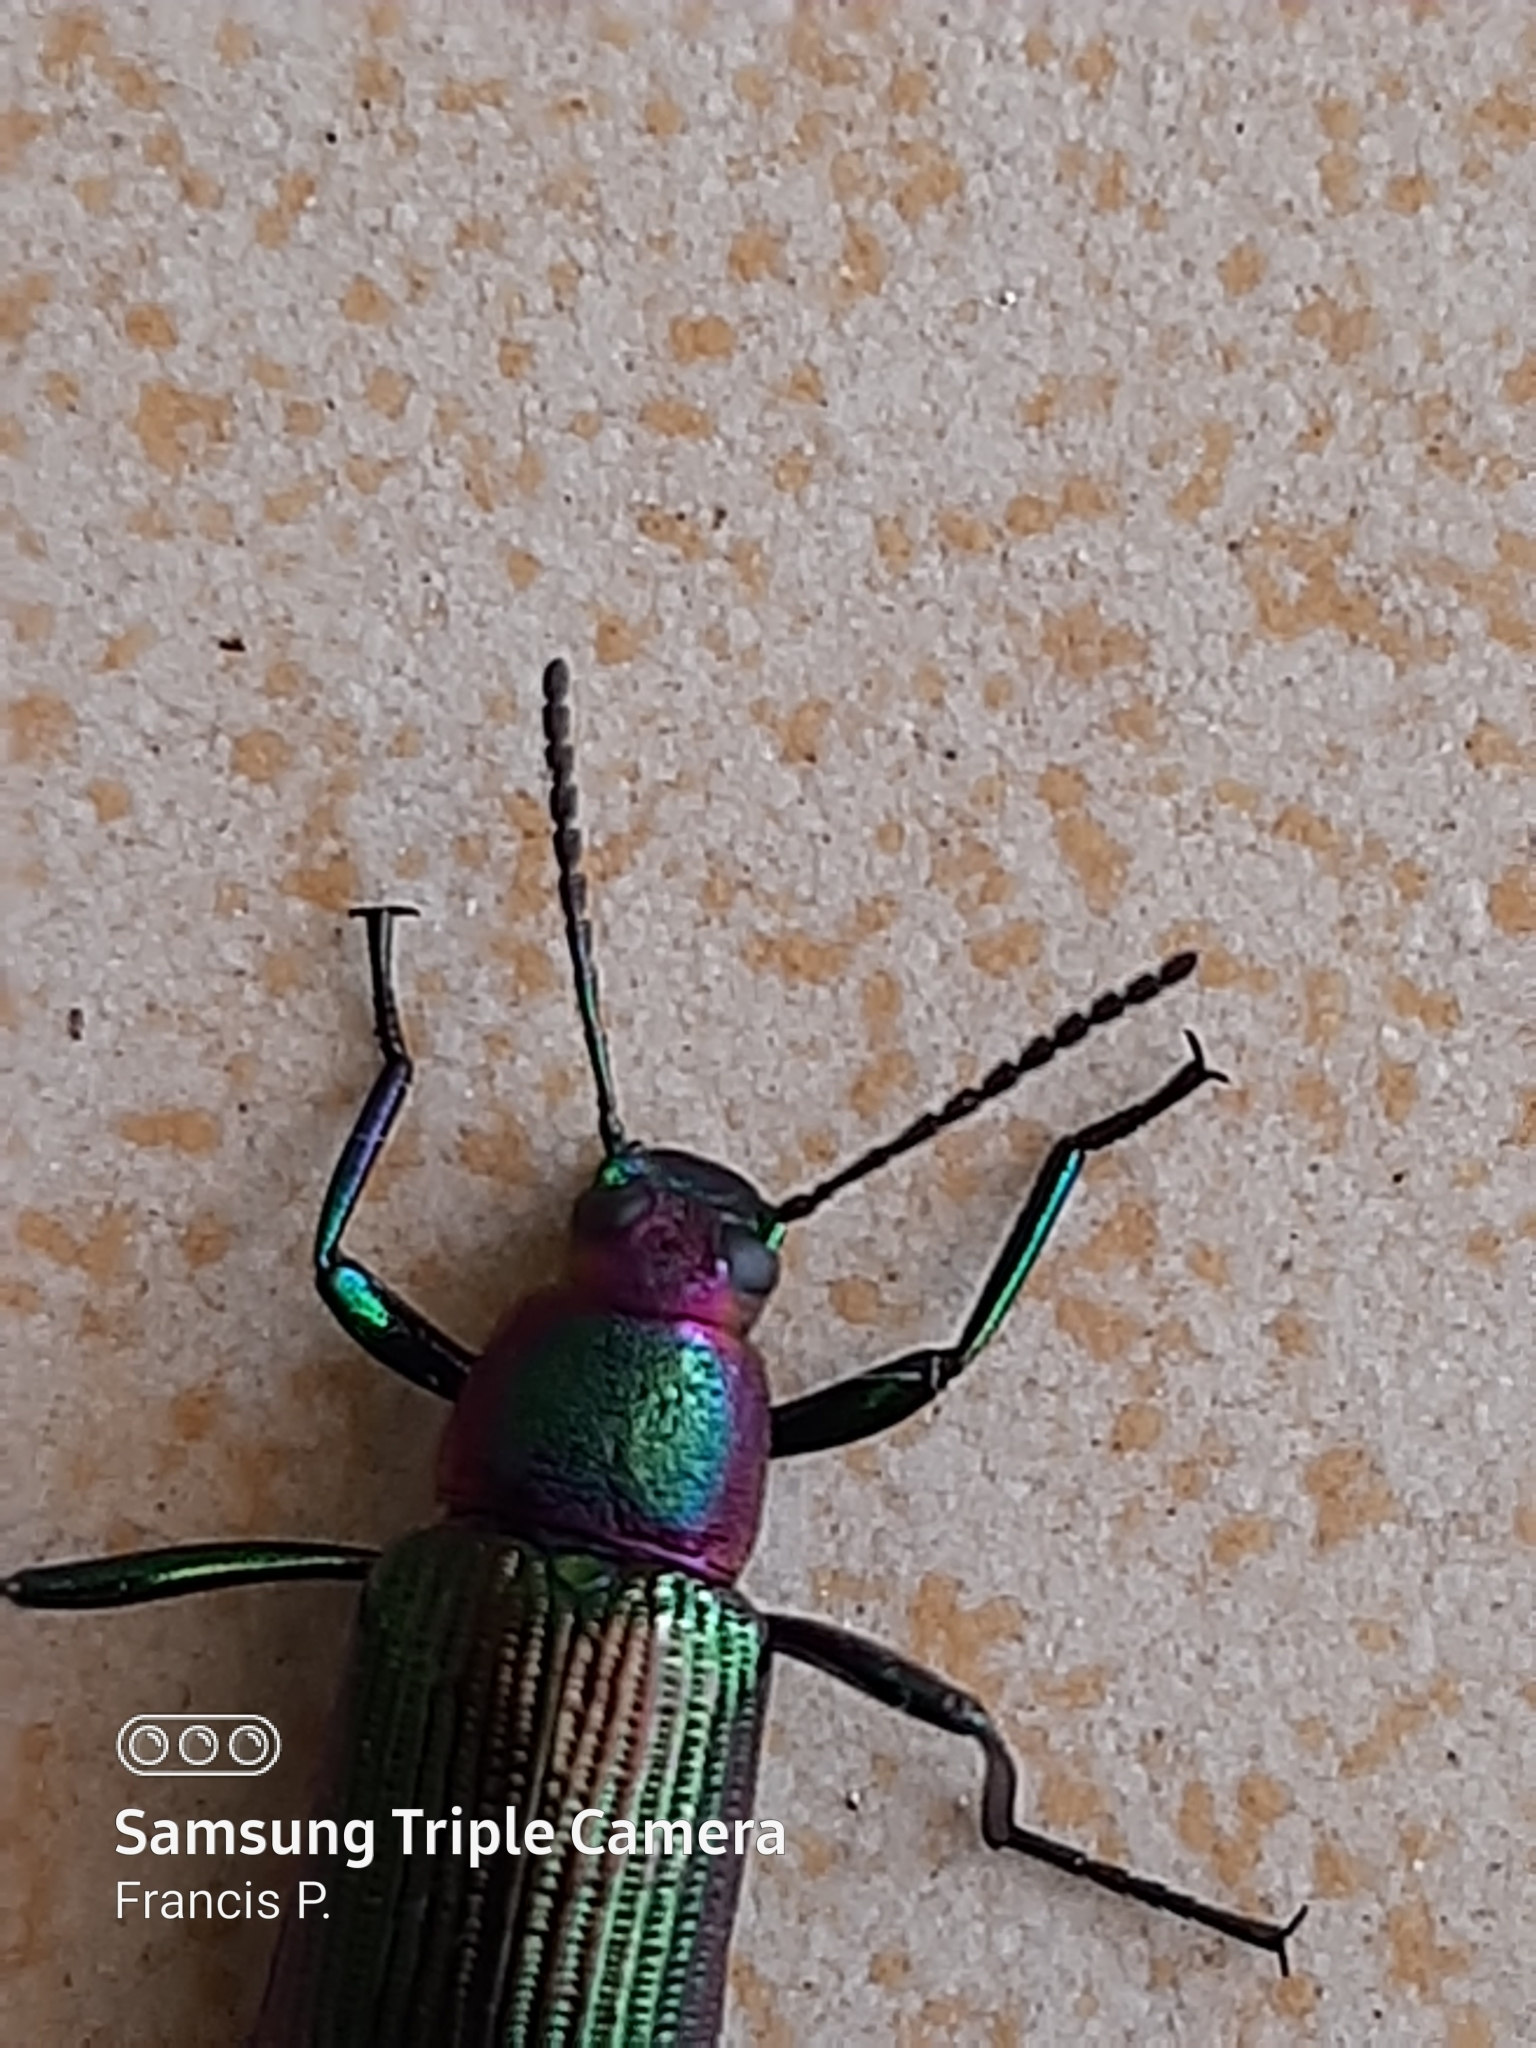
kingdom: Animalia
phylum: Arthropoda
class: Insecta
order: Coleoptera
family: Tenebrionidae
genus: Strongylium
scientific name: Strongylium auratum
